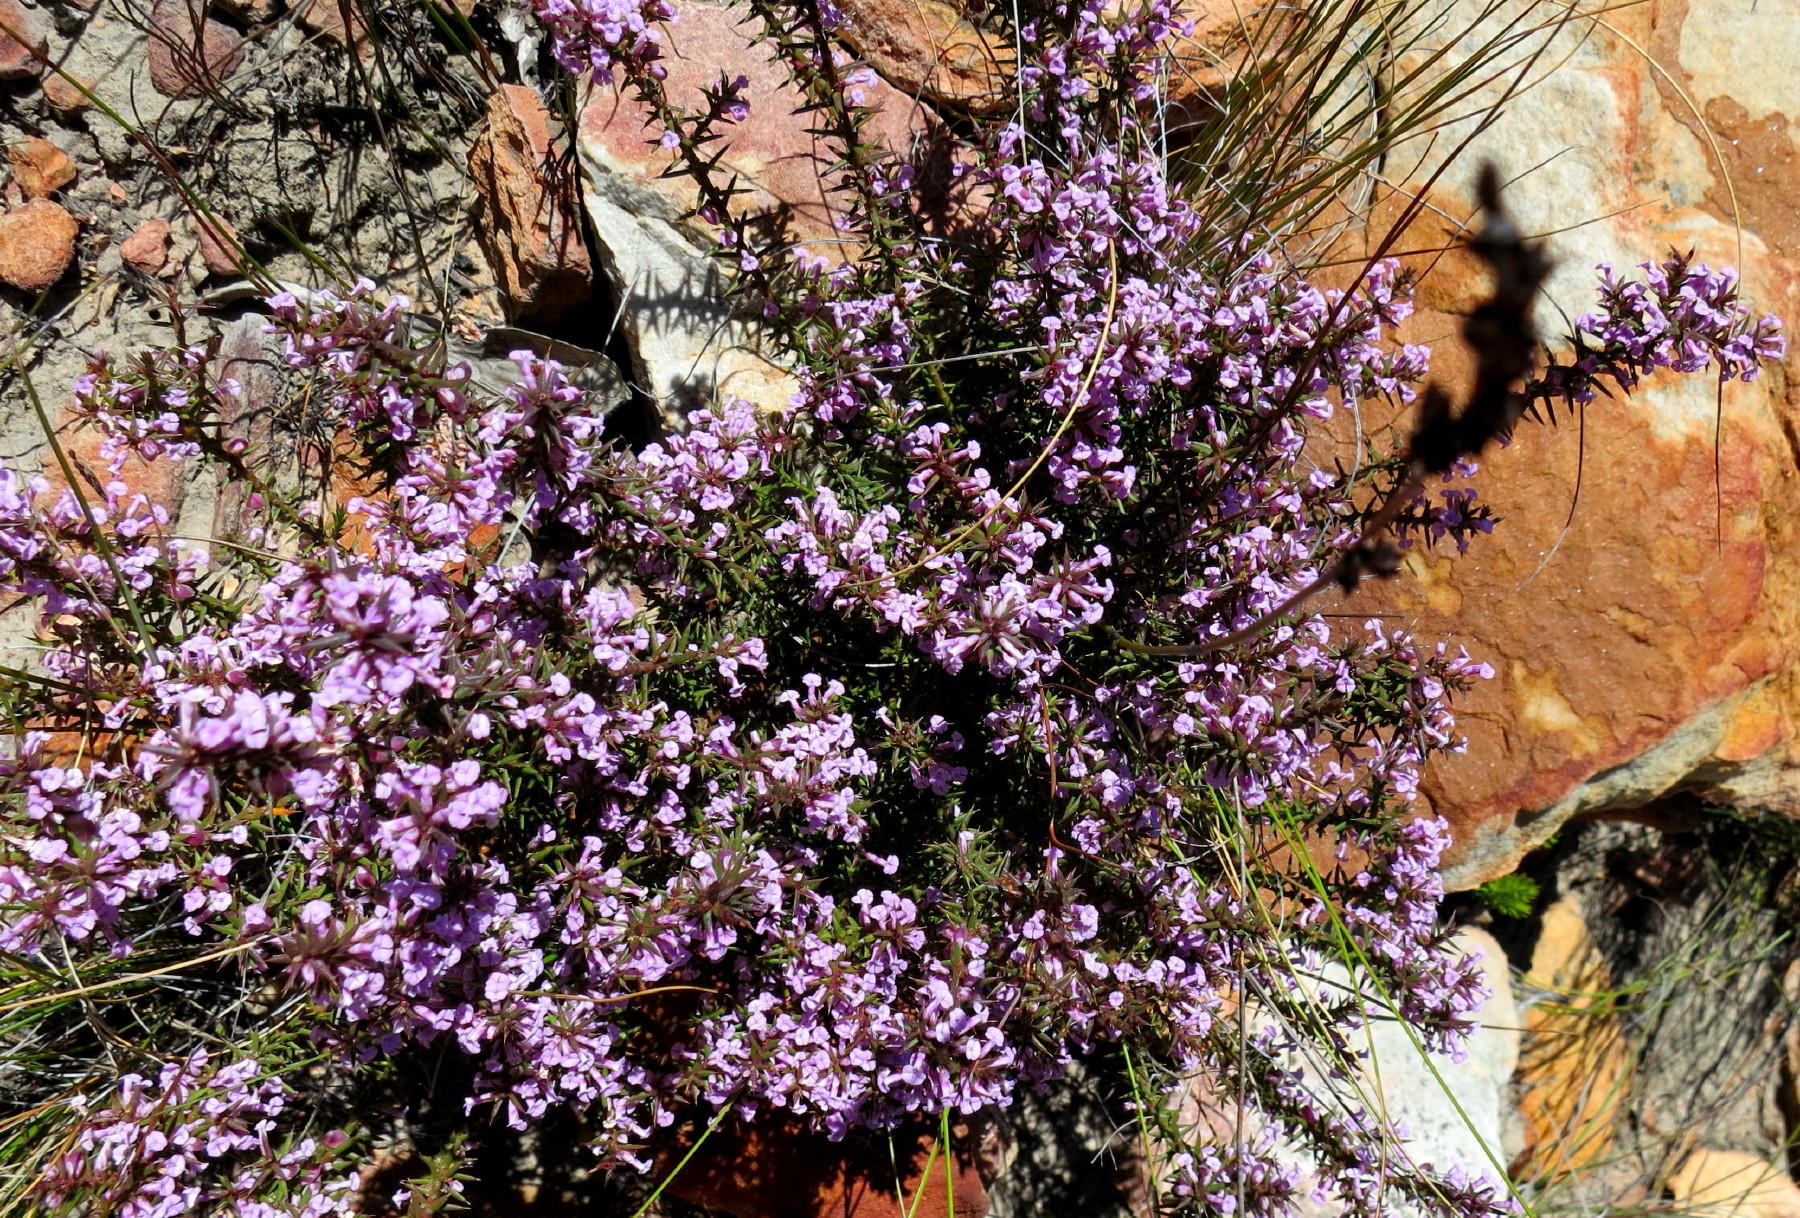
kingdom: Plantae
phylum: Tracheophyta
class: Magnoliopsida
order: Fabales
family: Polygalaceae
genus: Muraltia
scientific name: Muraltia juniperifolia
